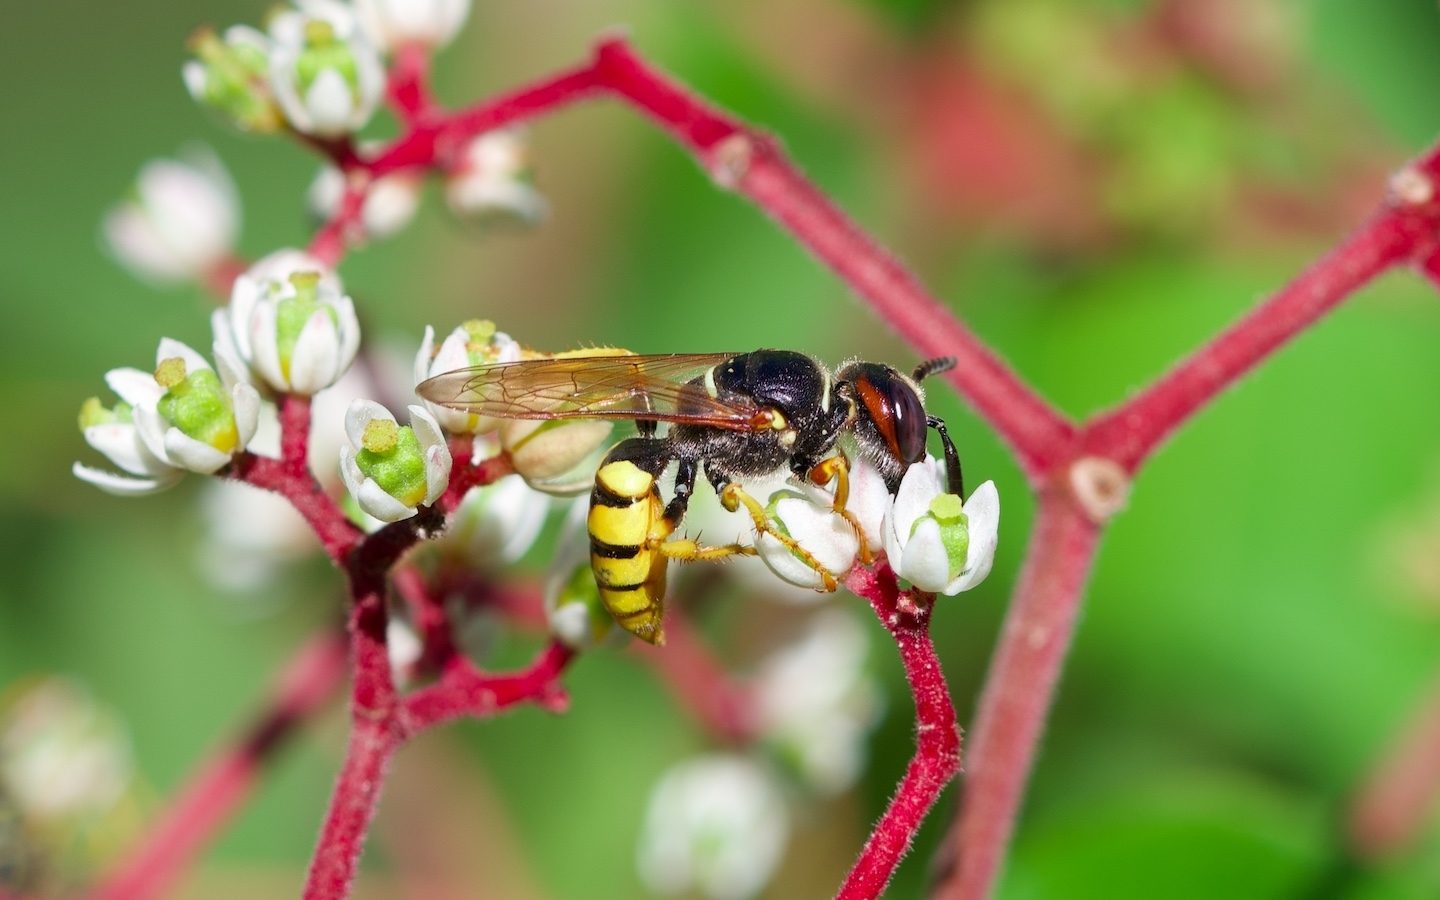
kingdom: Animalia
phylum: Arthropoda
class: Insecta
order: Hymenoptera
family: Crabronidae
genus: Philanthus
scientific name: Philanthus triangulum
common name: Bee wolf
